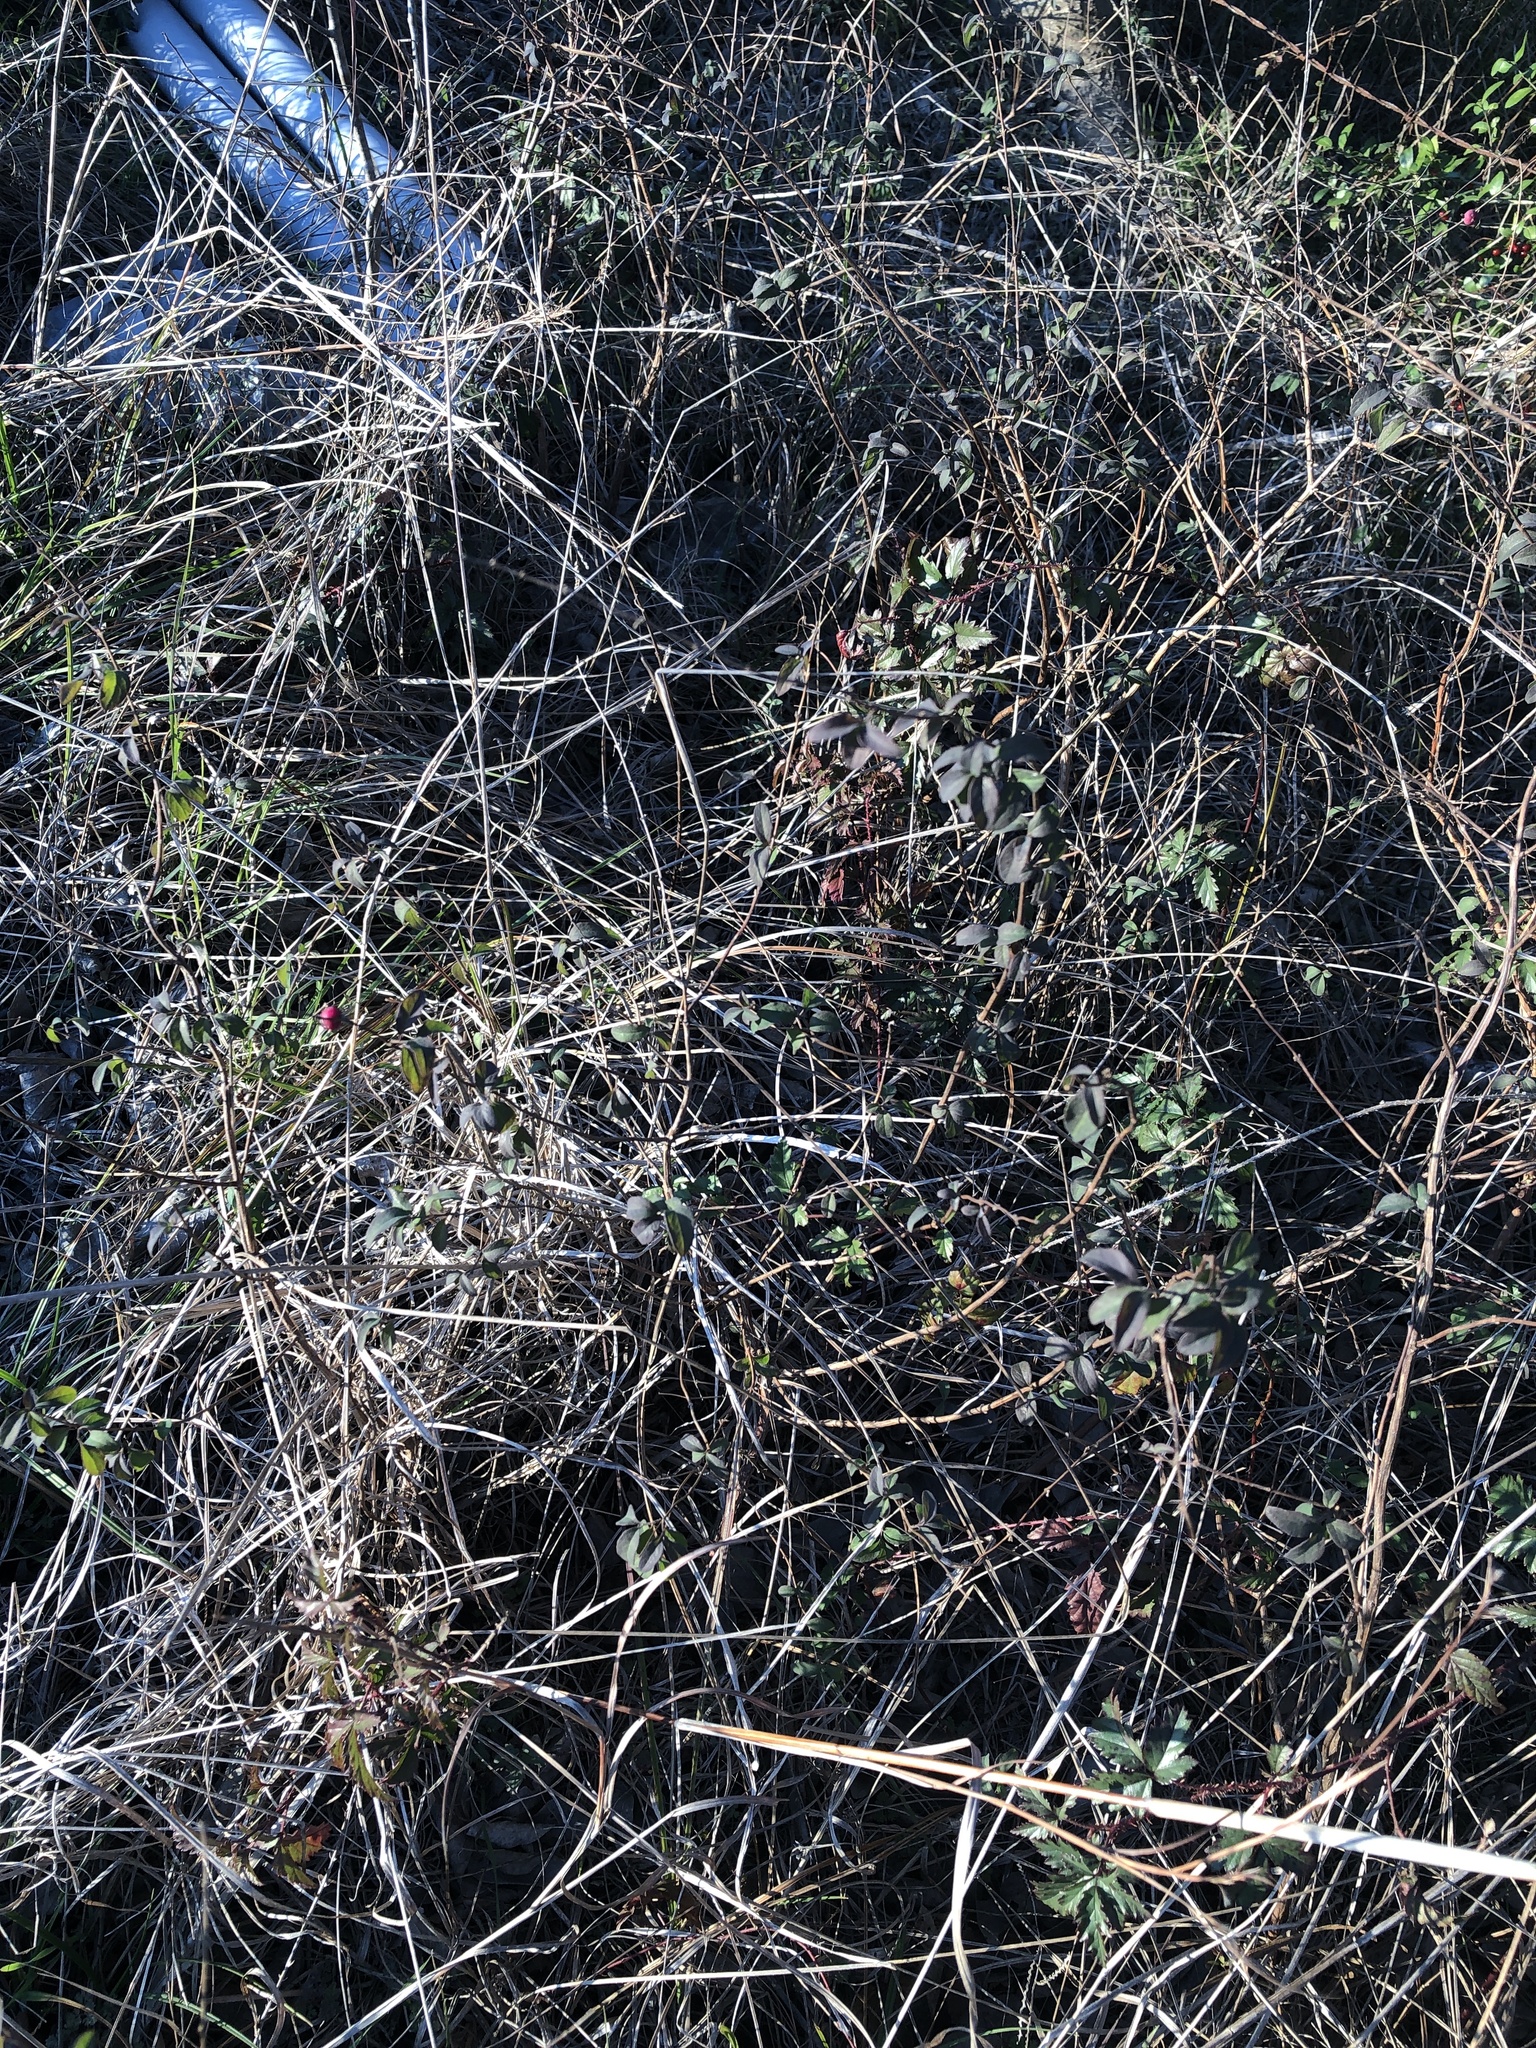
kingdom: Plantae
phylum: Tracheophyta
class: Magnoliopsida
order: Dipsacales
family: Caprifoliaceae
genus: Symphoricarpos
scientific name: Symphoricarpos orbiculatus
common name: Coralberry
